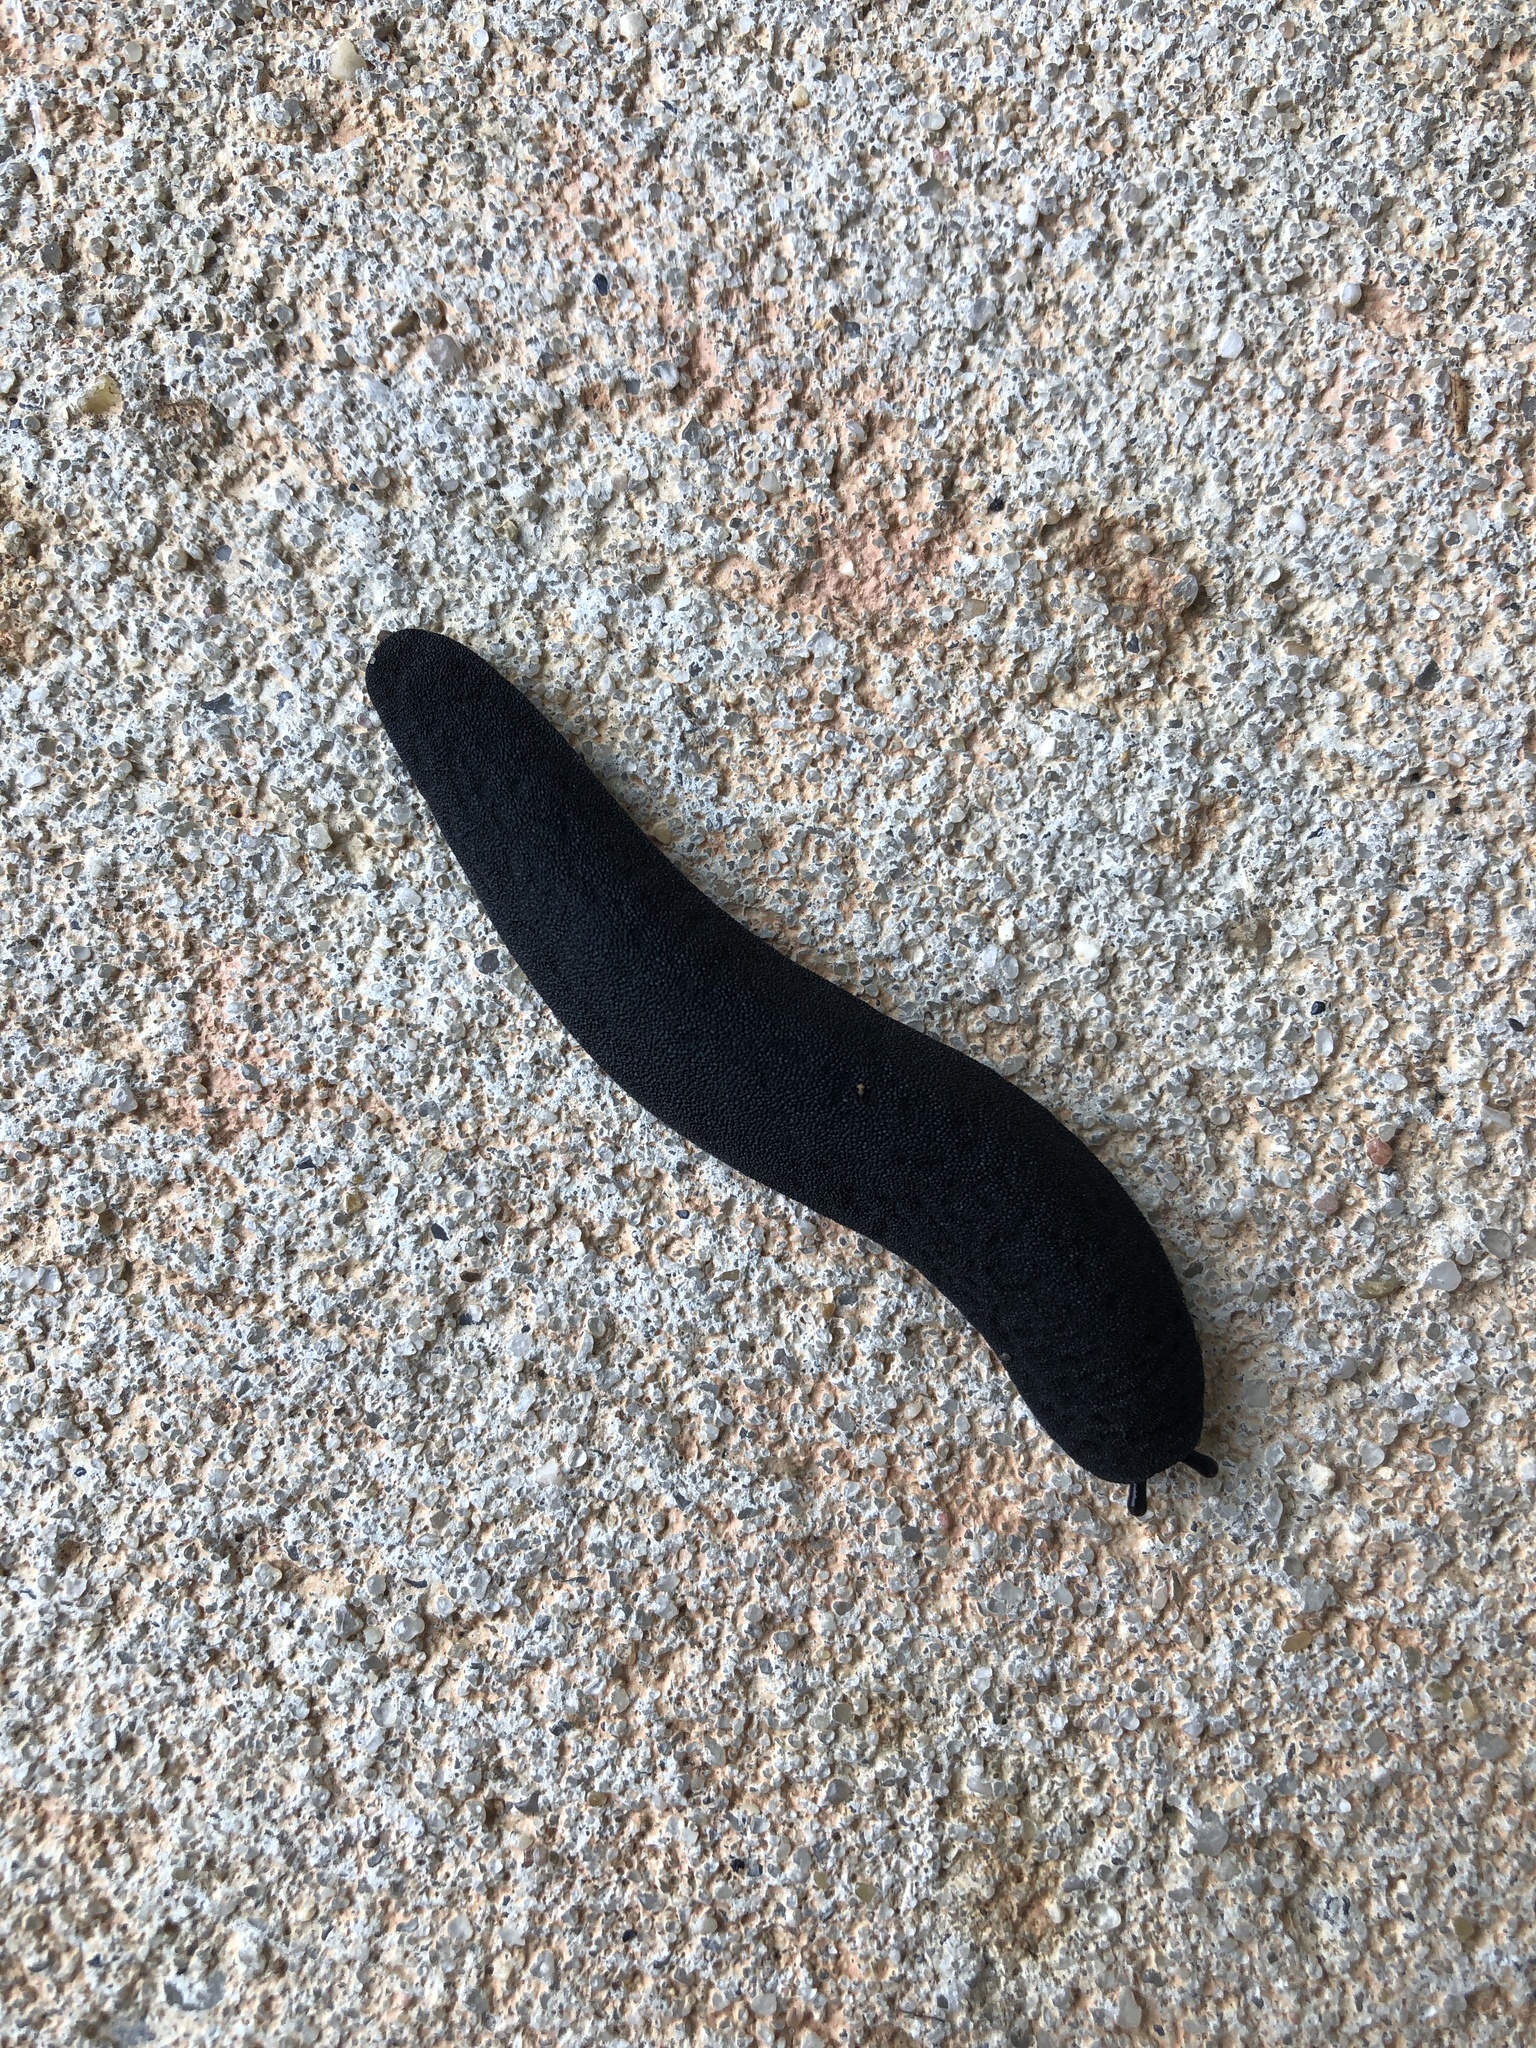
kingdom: Animalia
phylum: Mollusca
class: Gastropoda
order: Systellommatophora
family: Veronicellidae
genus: Belocaulus
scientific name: Belocaulus angustipes
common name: Black velvet leatherleaf slug
